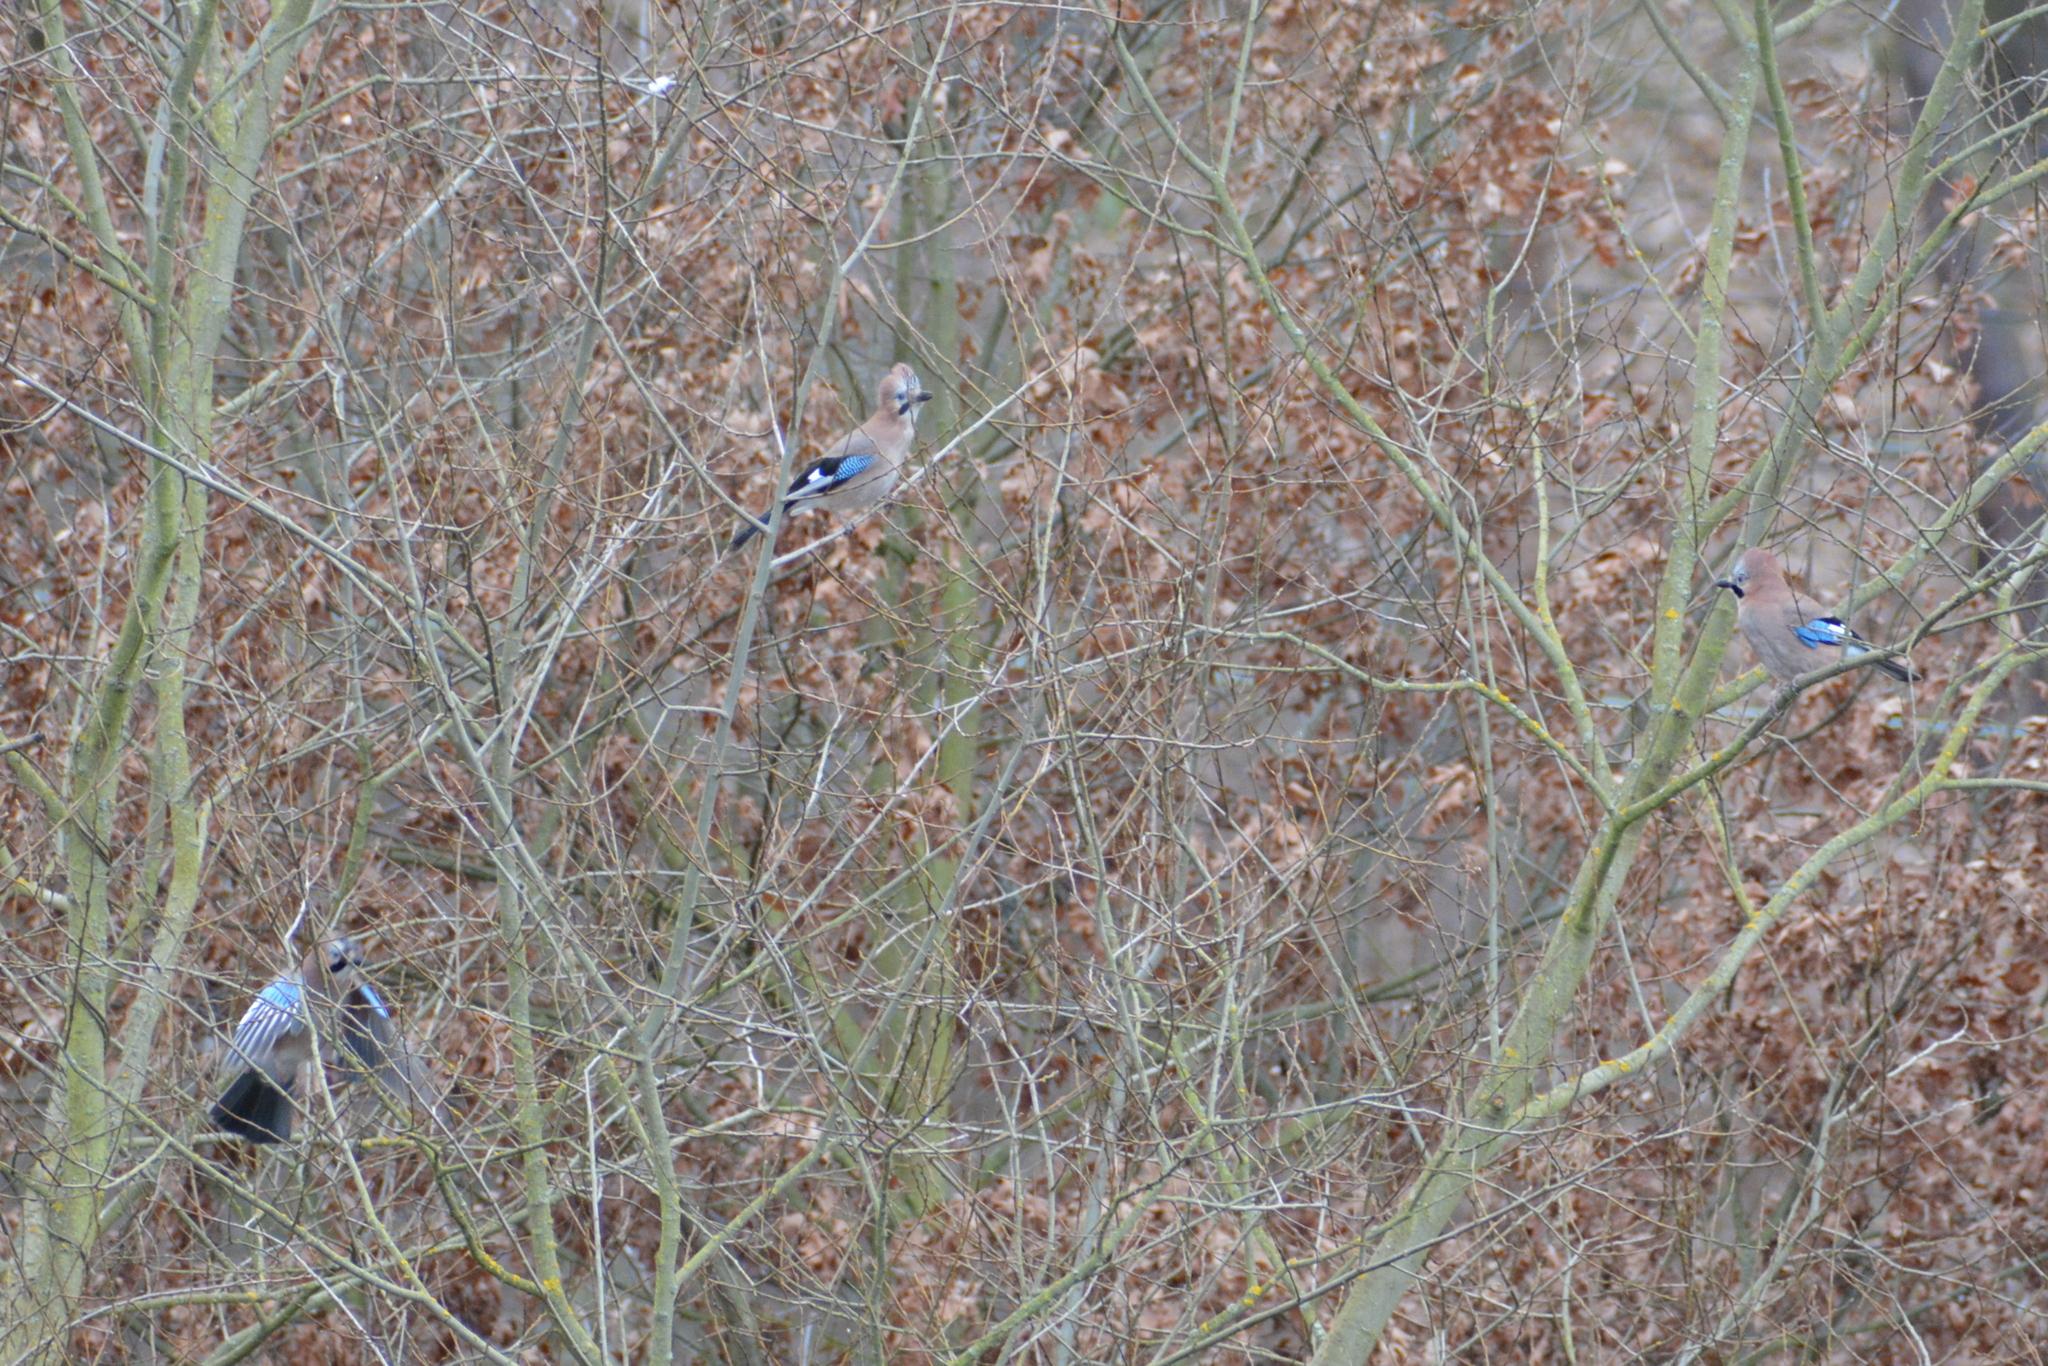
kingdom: Animalia
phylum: Chordata
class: Aves
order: Passeriformes
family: Corvidae
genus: Garrulus
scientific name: Garrulus glandarius
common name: Eurasian jay
